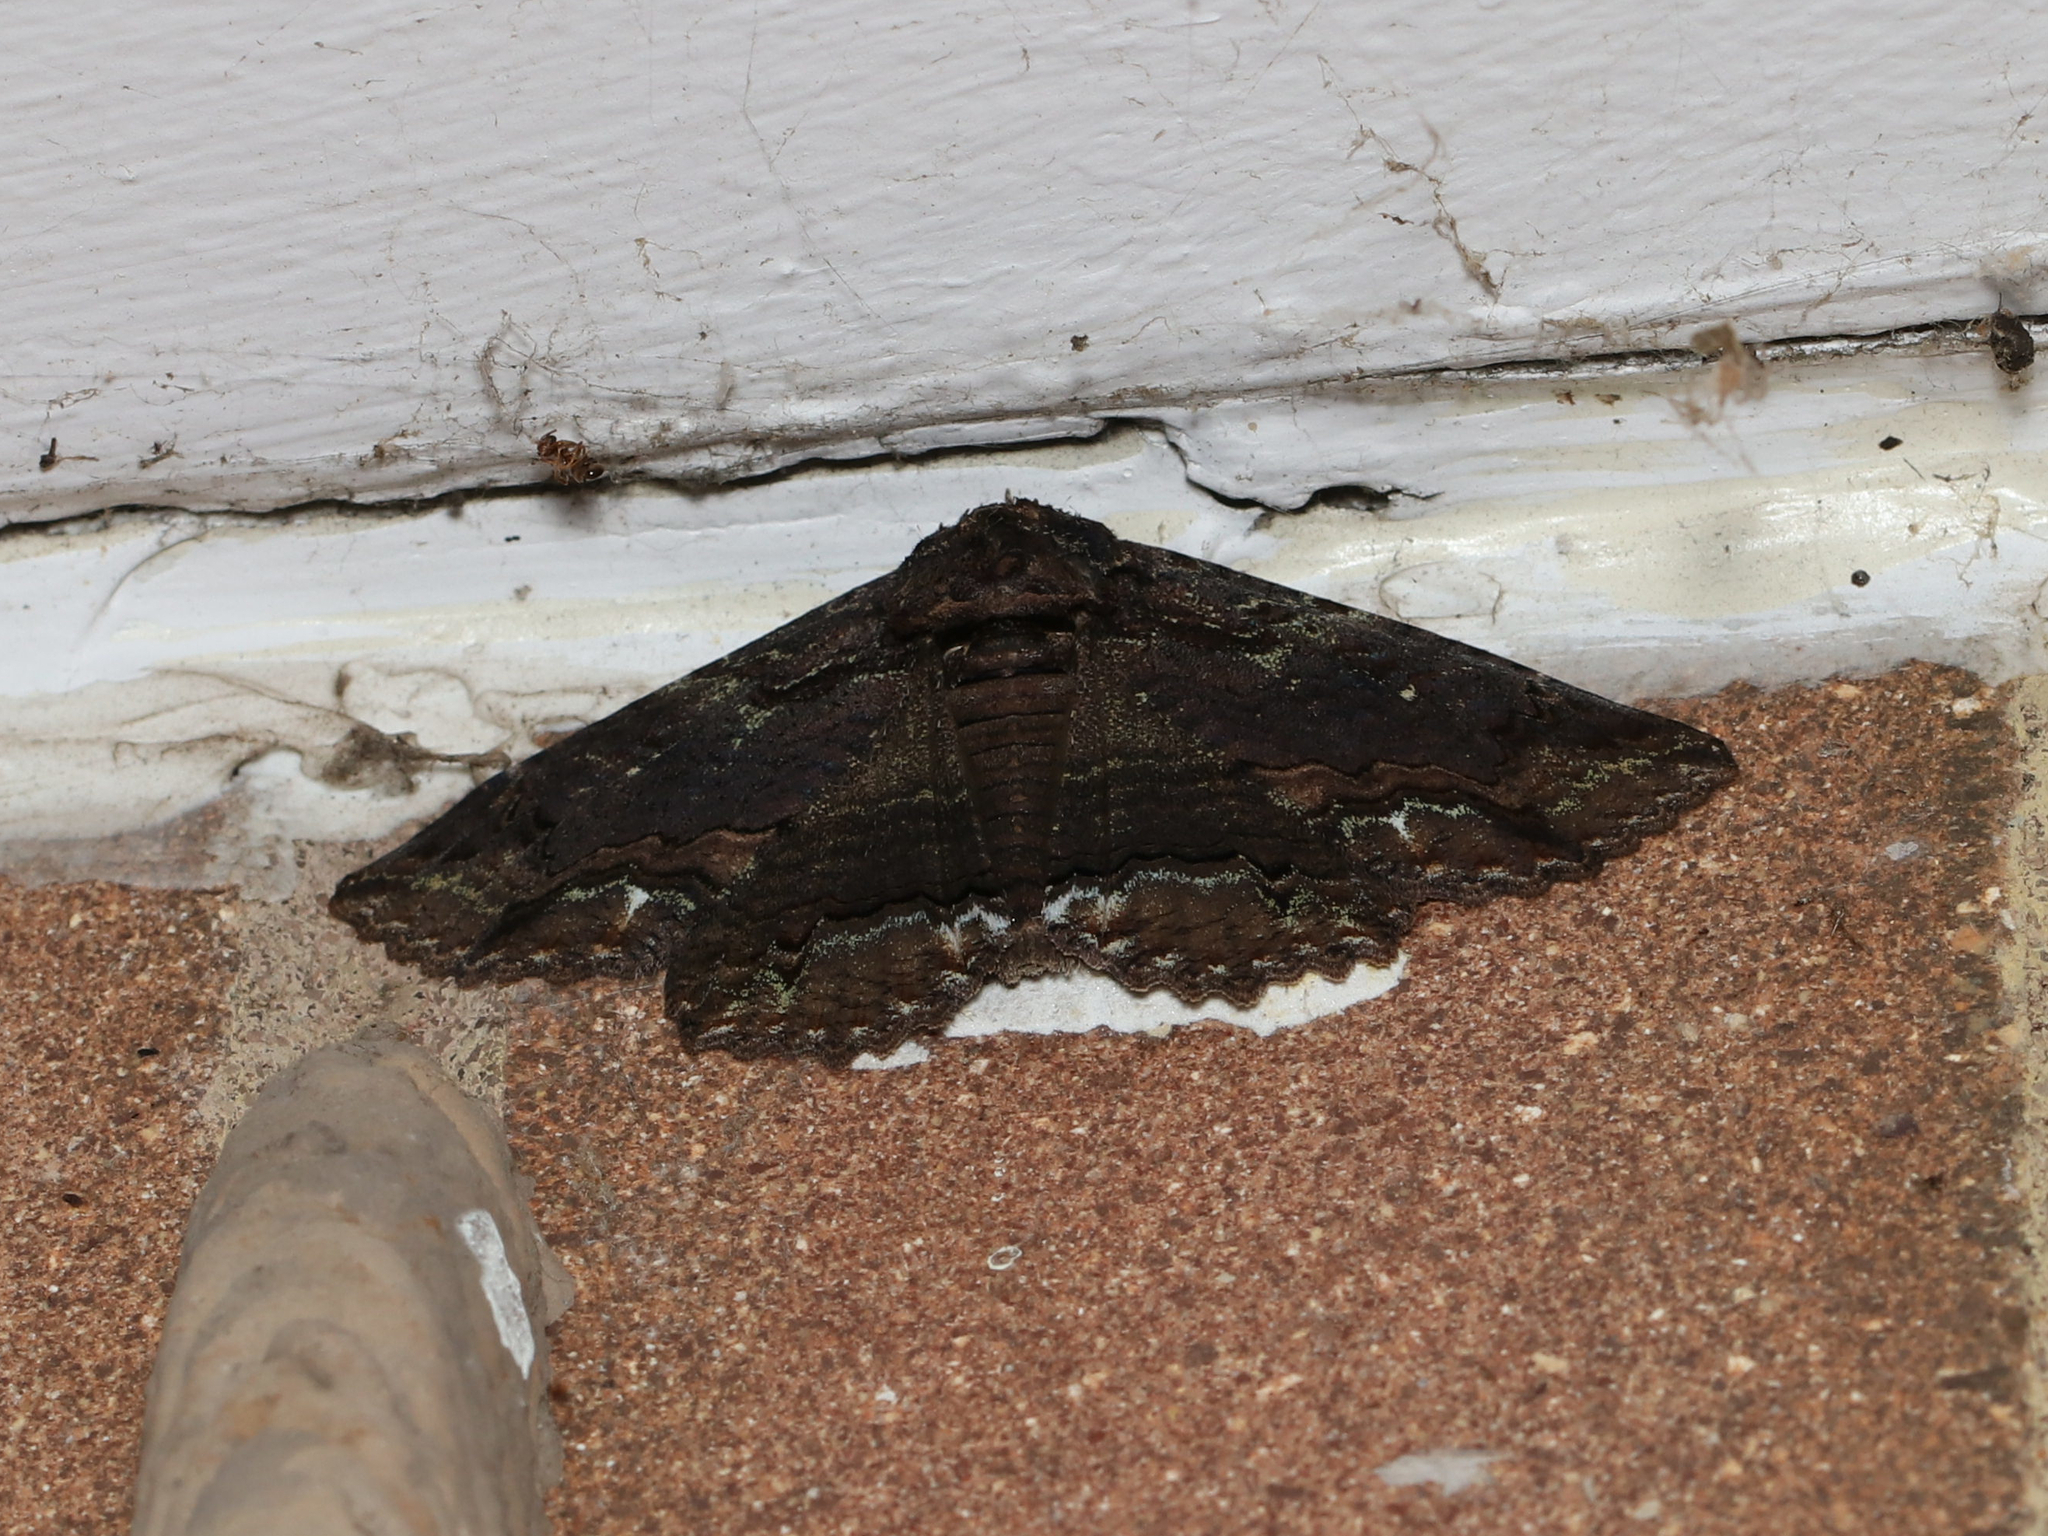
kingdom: Animalia
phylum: Arthropoda
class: Insecta
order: Lepidoptera
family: Erebidae
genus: Zale
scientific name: Zale lunata
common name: Lunate zale moth
